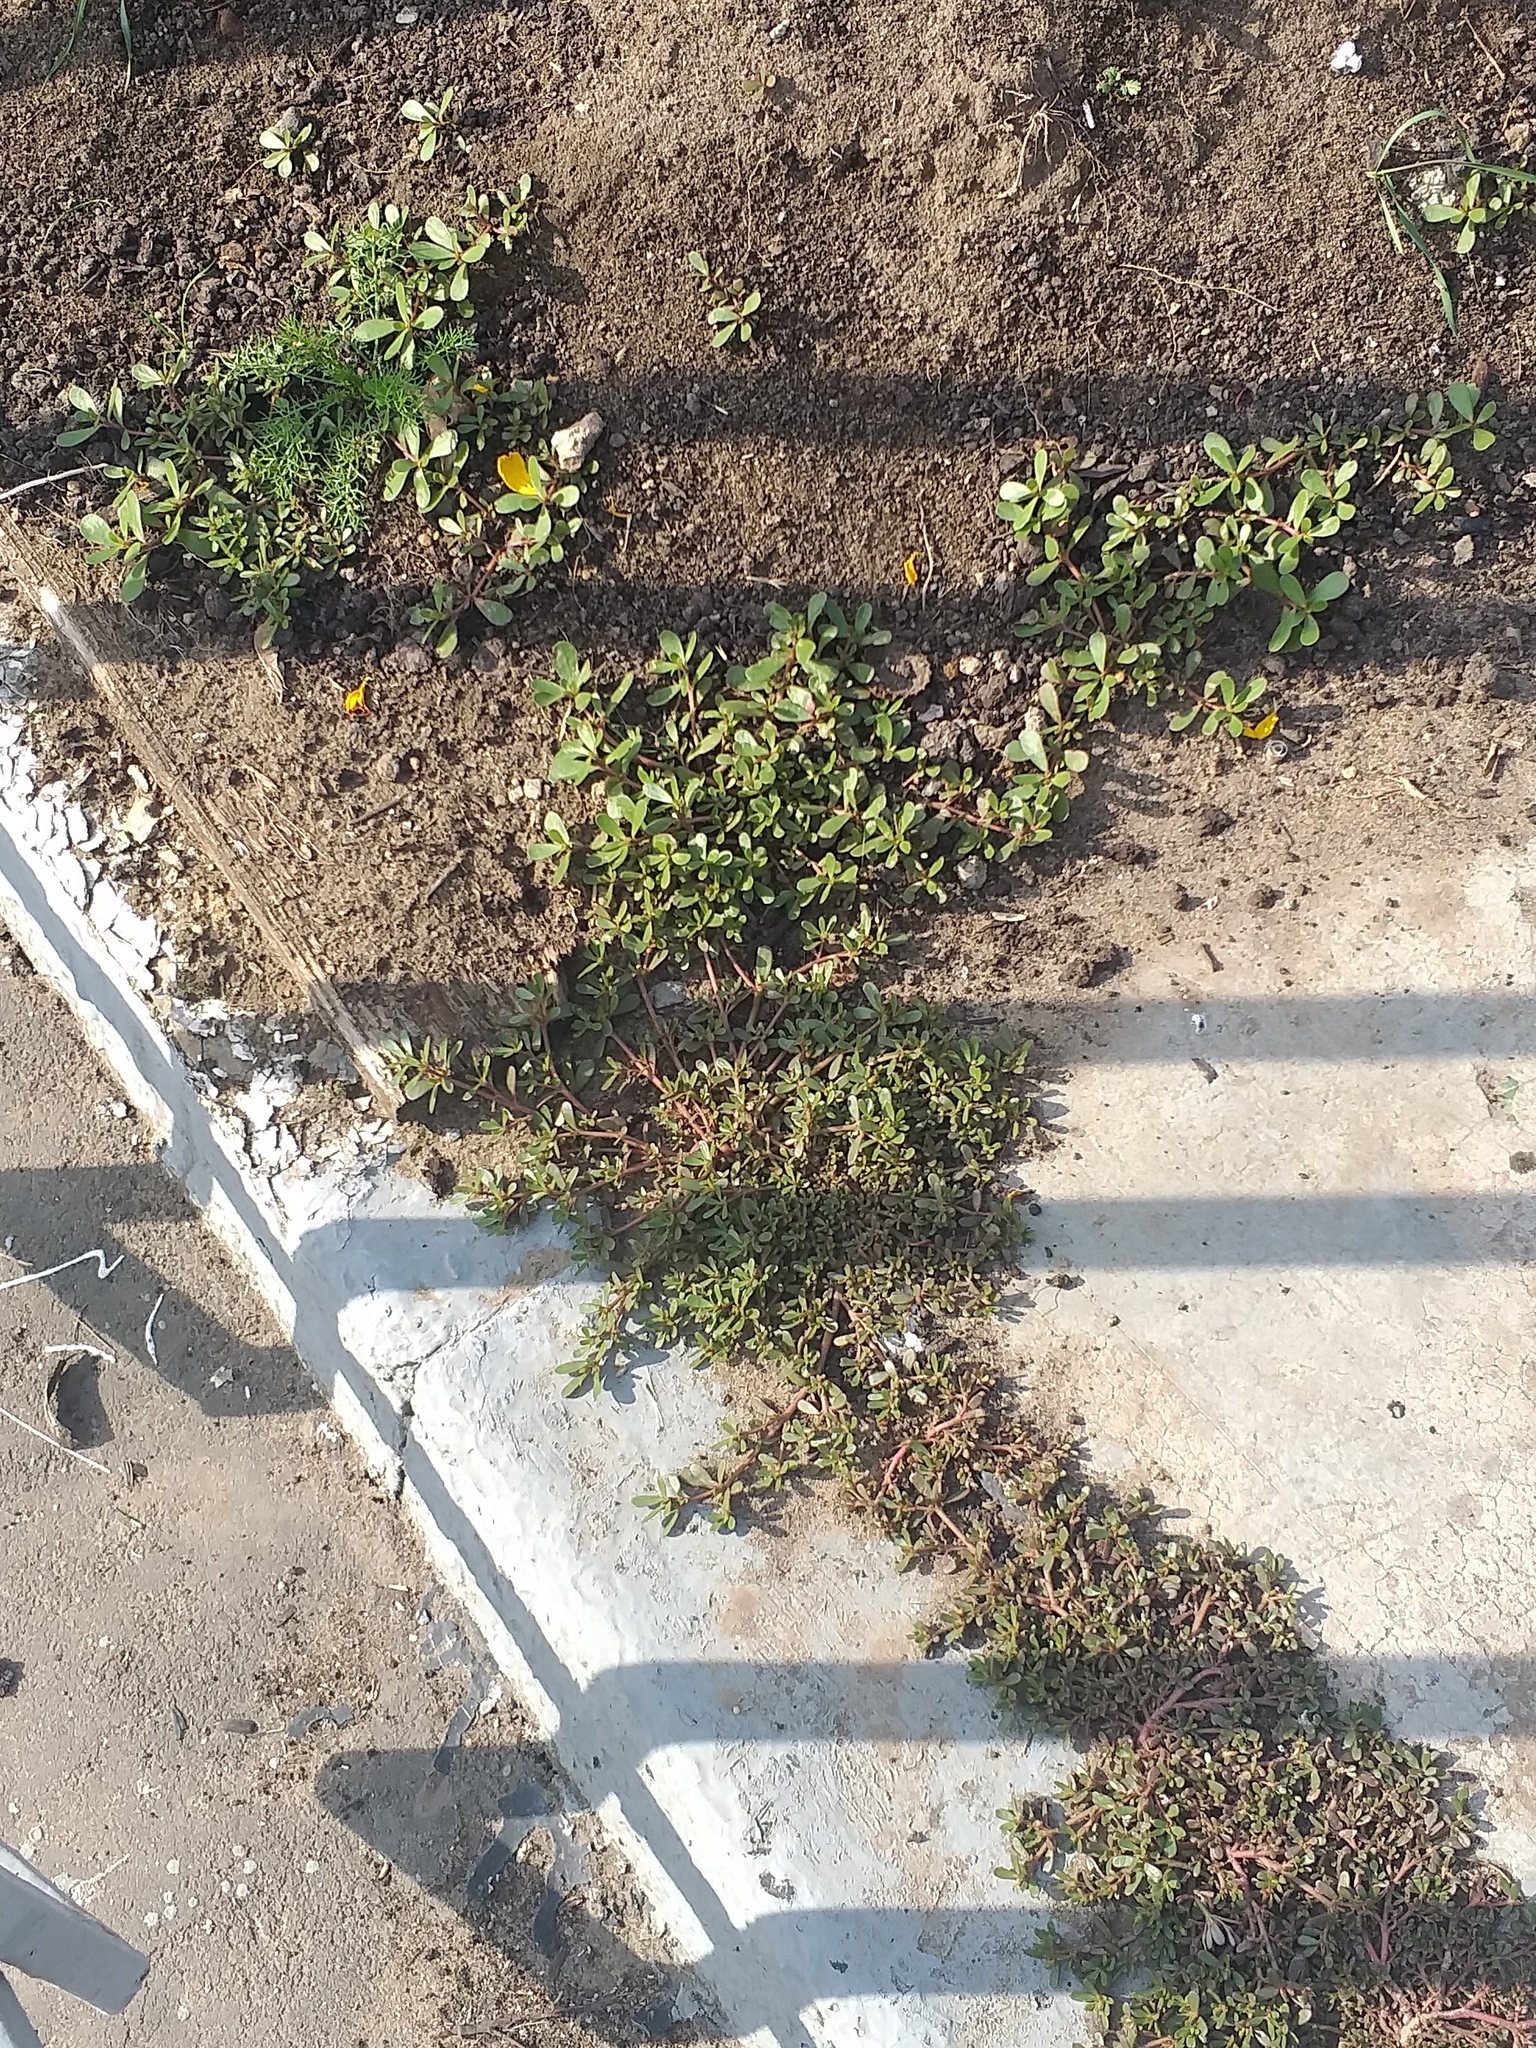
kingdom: Plantae
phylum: Tracheophyta
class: Magnoliopsida
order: Caryophyllales
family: Portulacaceae
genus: Portulaca
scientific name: Portulaca oleracea
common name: Common purslane
